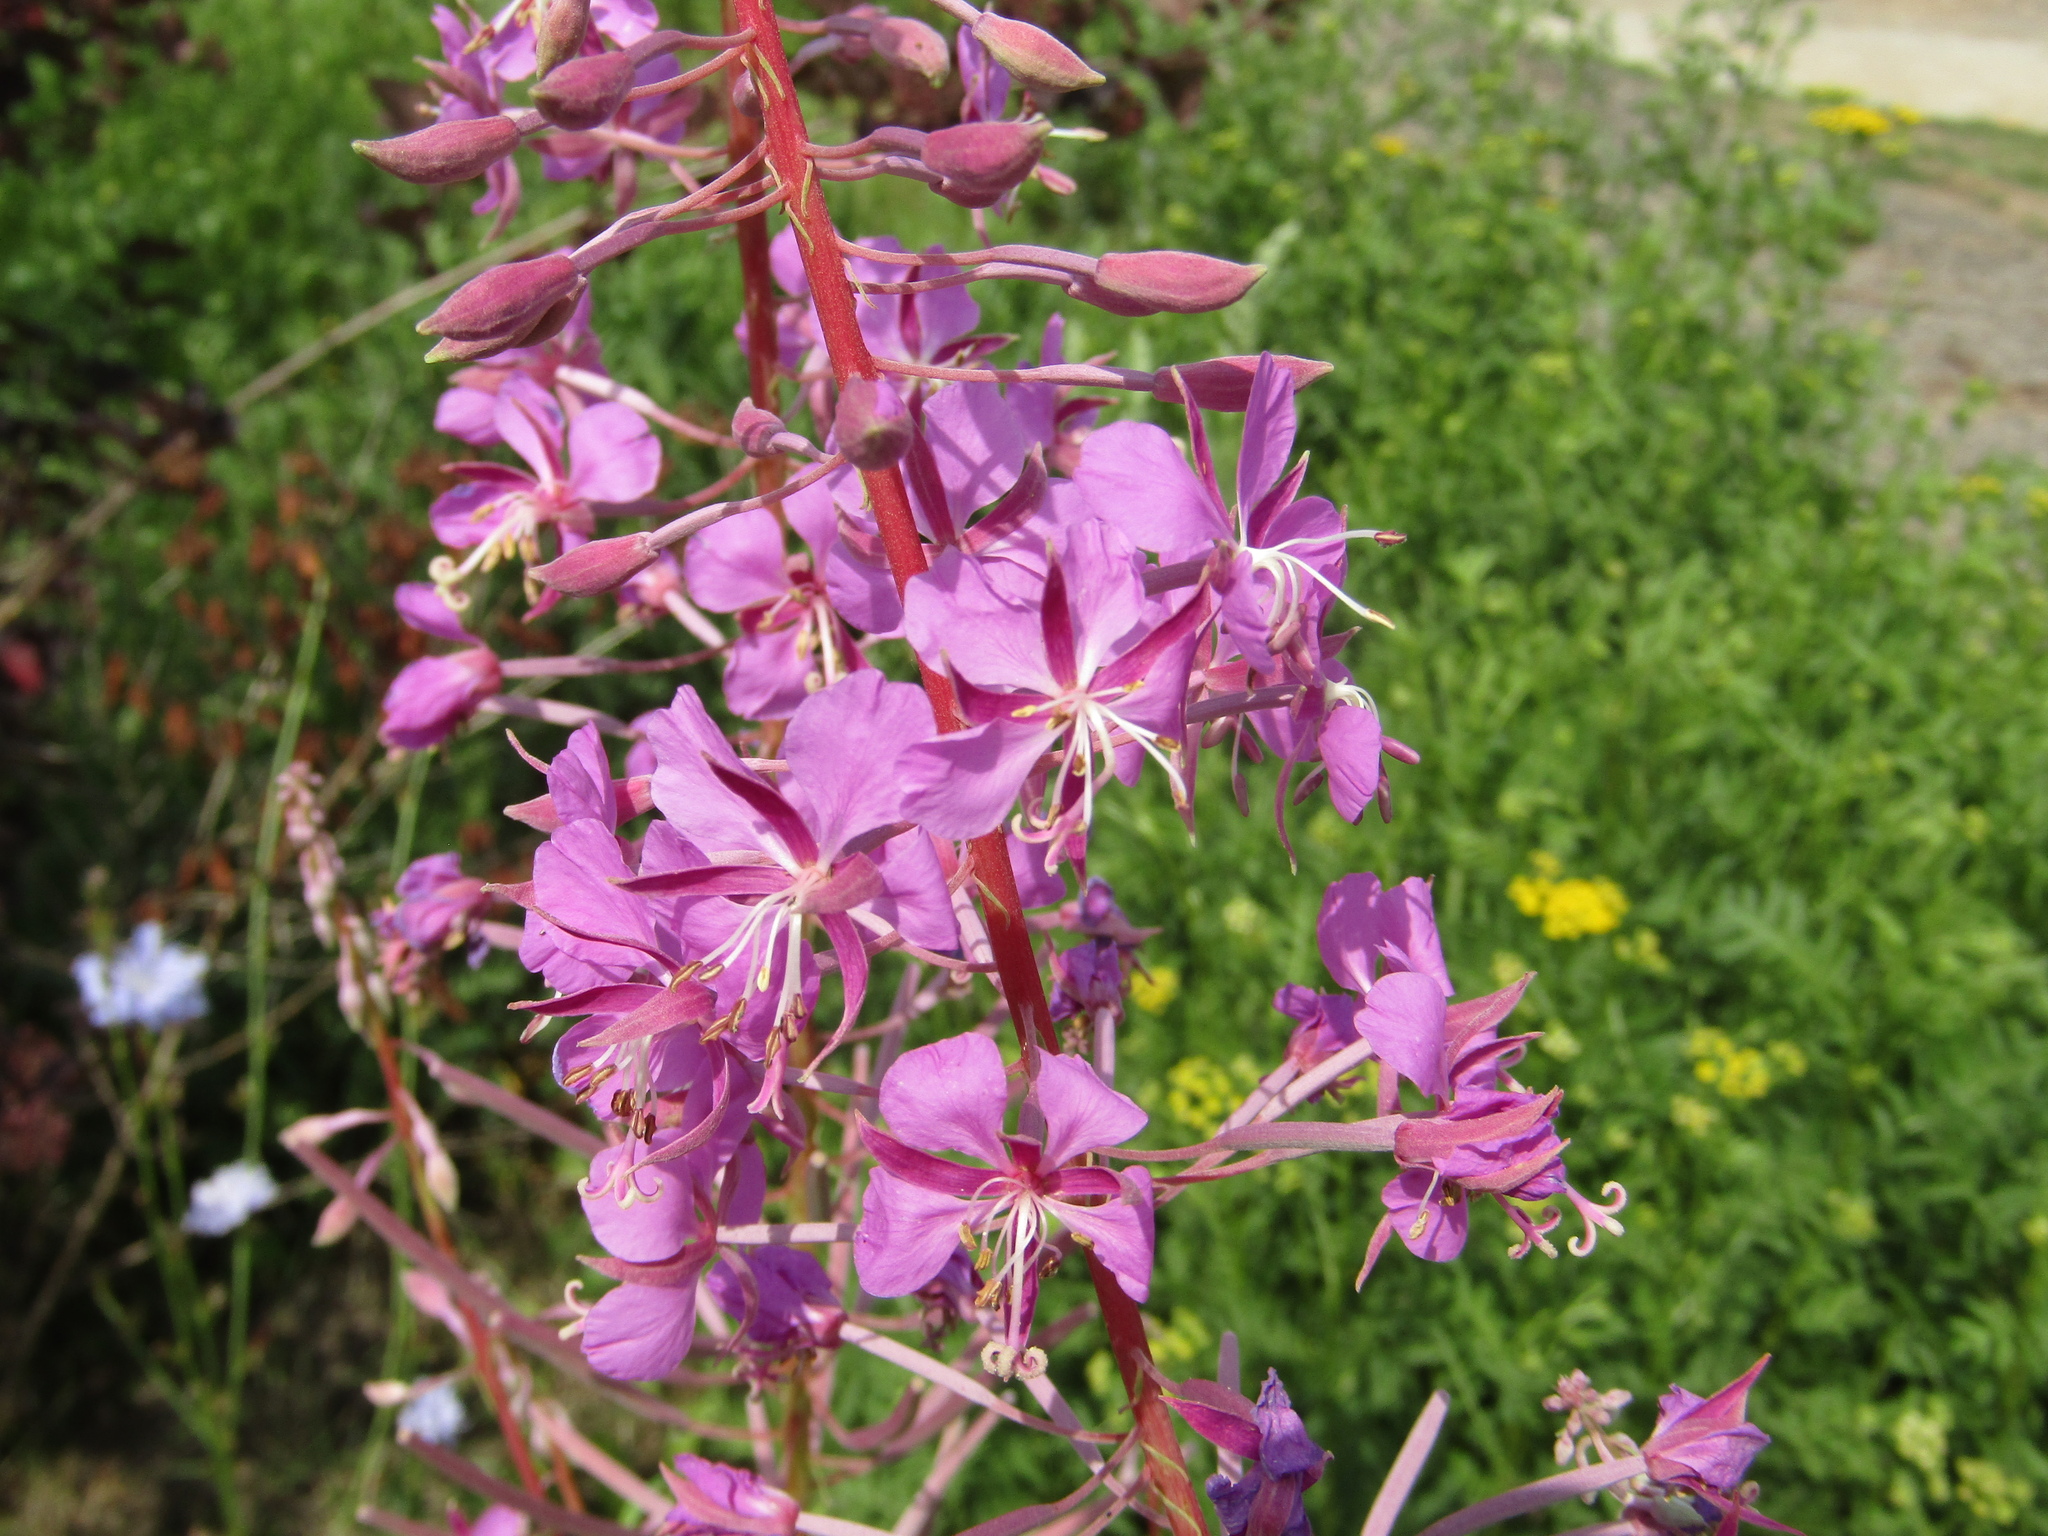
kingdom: Plantae
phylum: Tracheophyta
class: Magnoliopsida
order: Myrtales
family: Onagraceae
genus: Chamaenerion
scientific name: Chamaenerion angustifolium
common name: Fireweed
